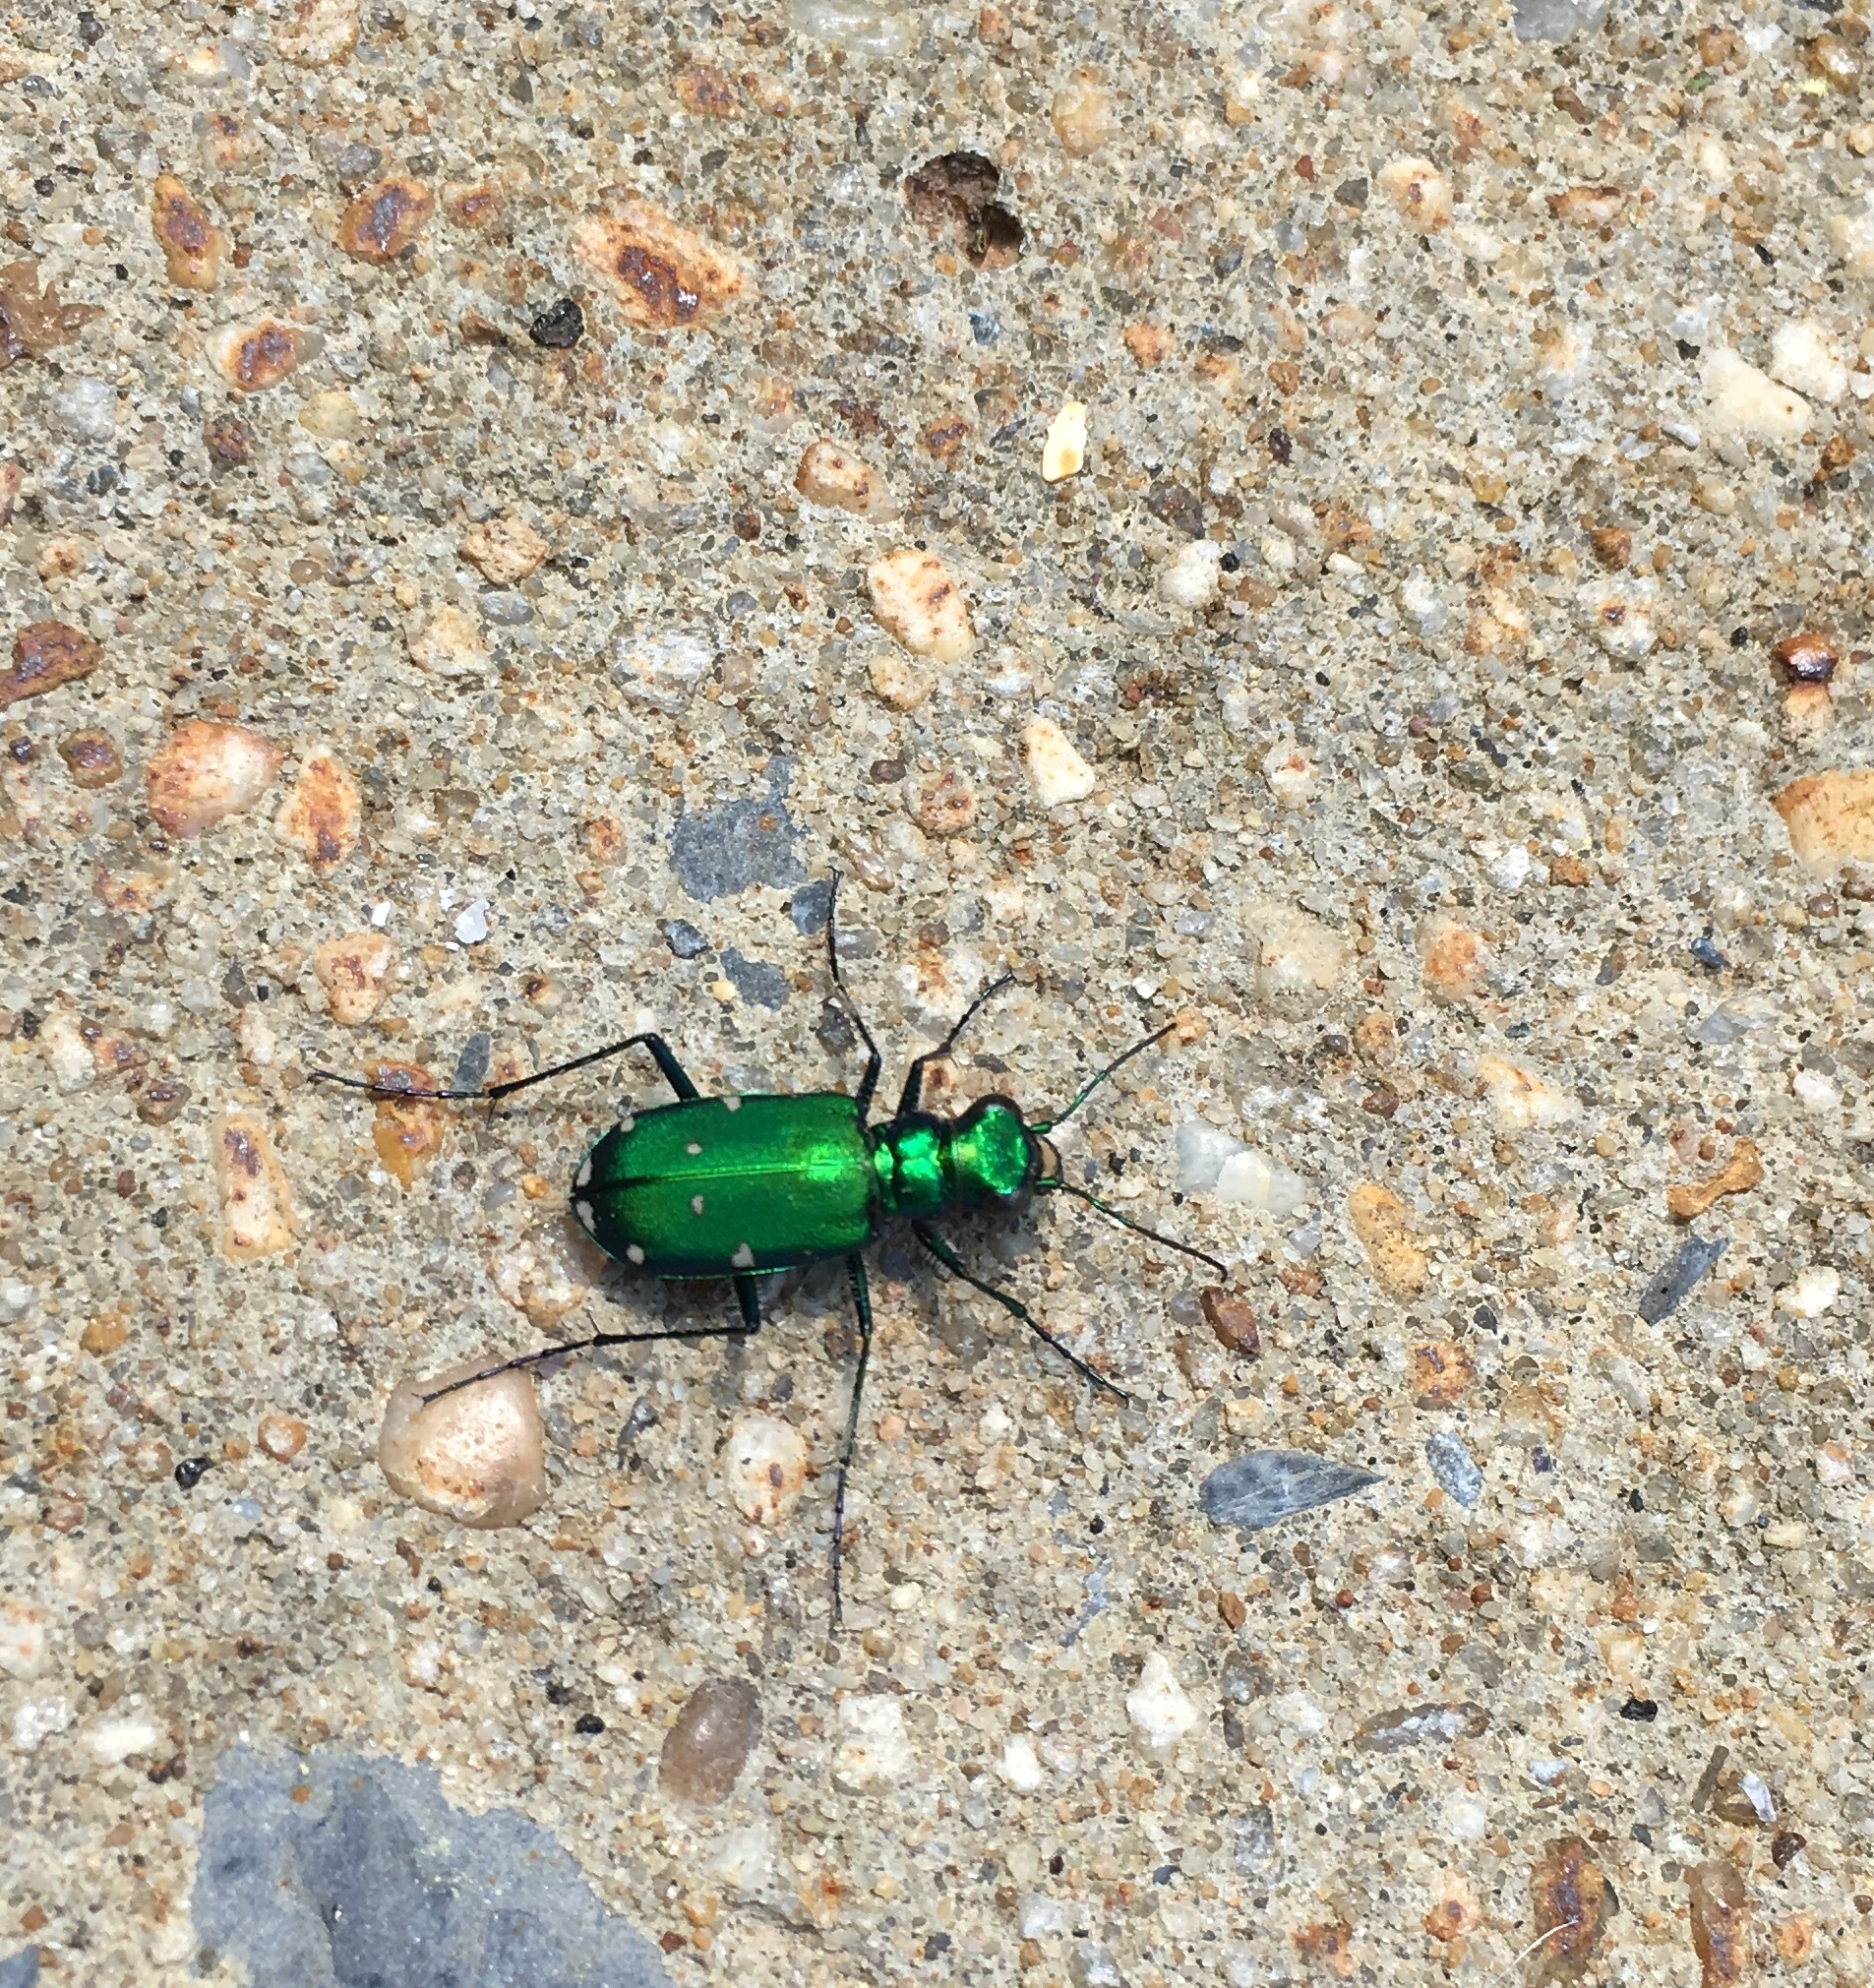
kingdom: Animalia
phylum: Arthropoda
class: Insecta
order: Coleoptera
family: Carabidae
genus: Cicindela
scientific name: Cicindela sexguttata
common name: Six-spotted tiger beetle
